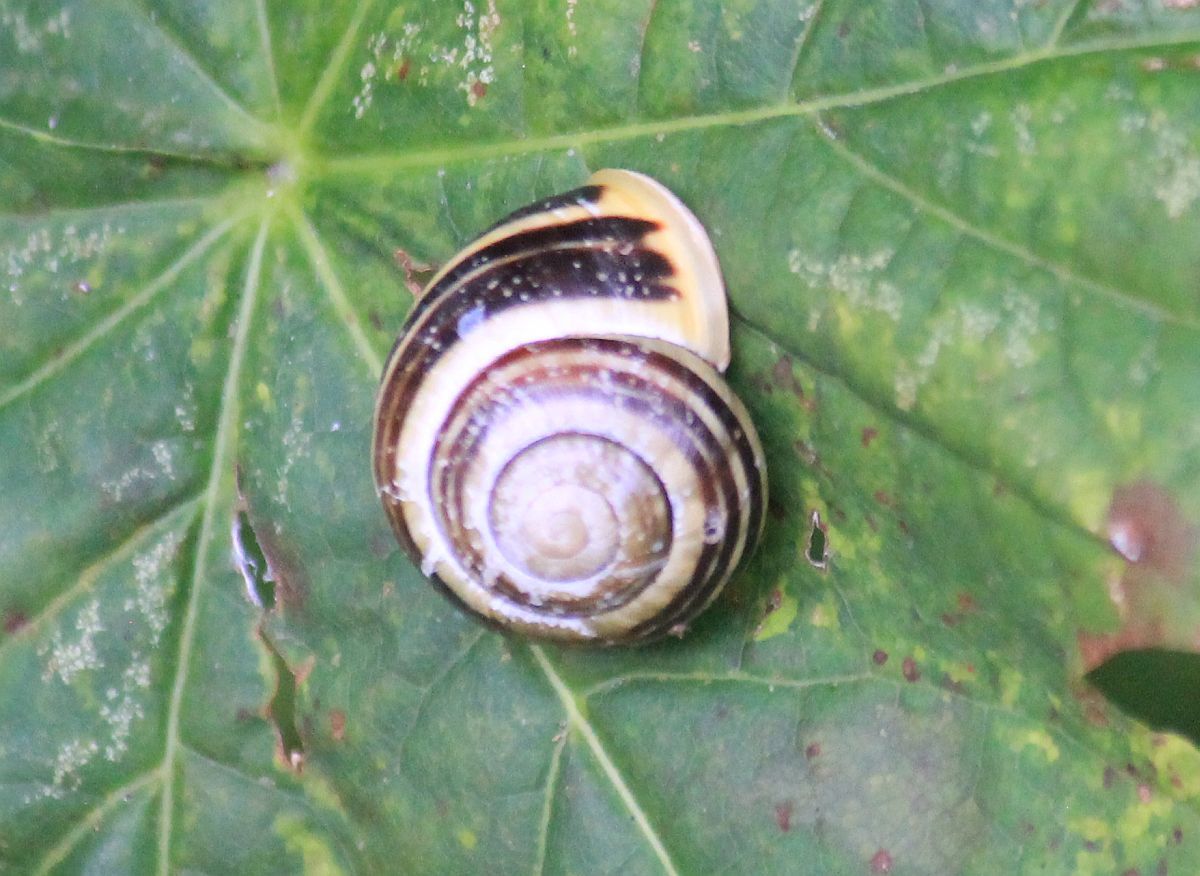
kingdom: Animalia
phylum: Mollusca
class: Gastropoda
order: Stylommatophora
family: Helicidae
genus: Cepaea
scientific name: Cepaea hortensis
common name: White-lip gardensnail
